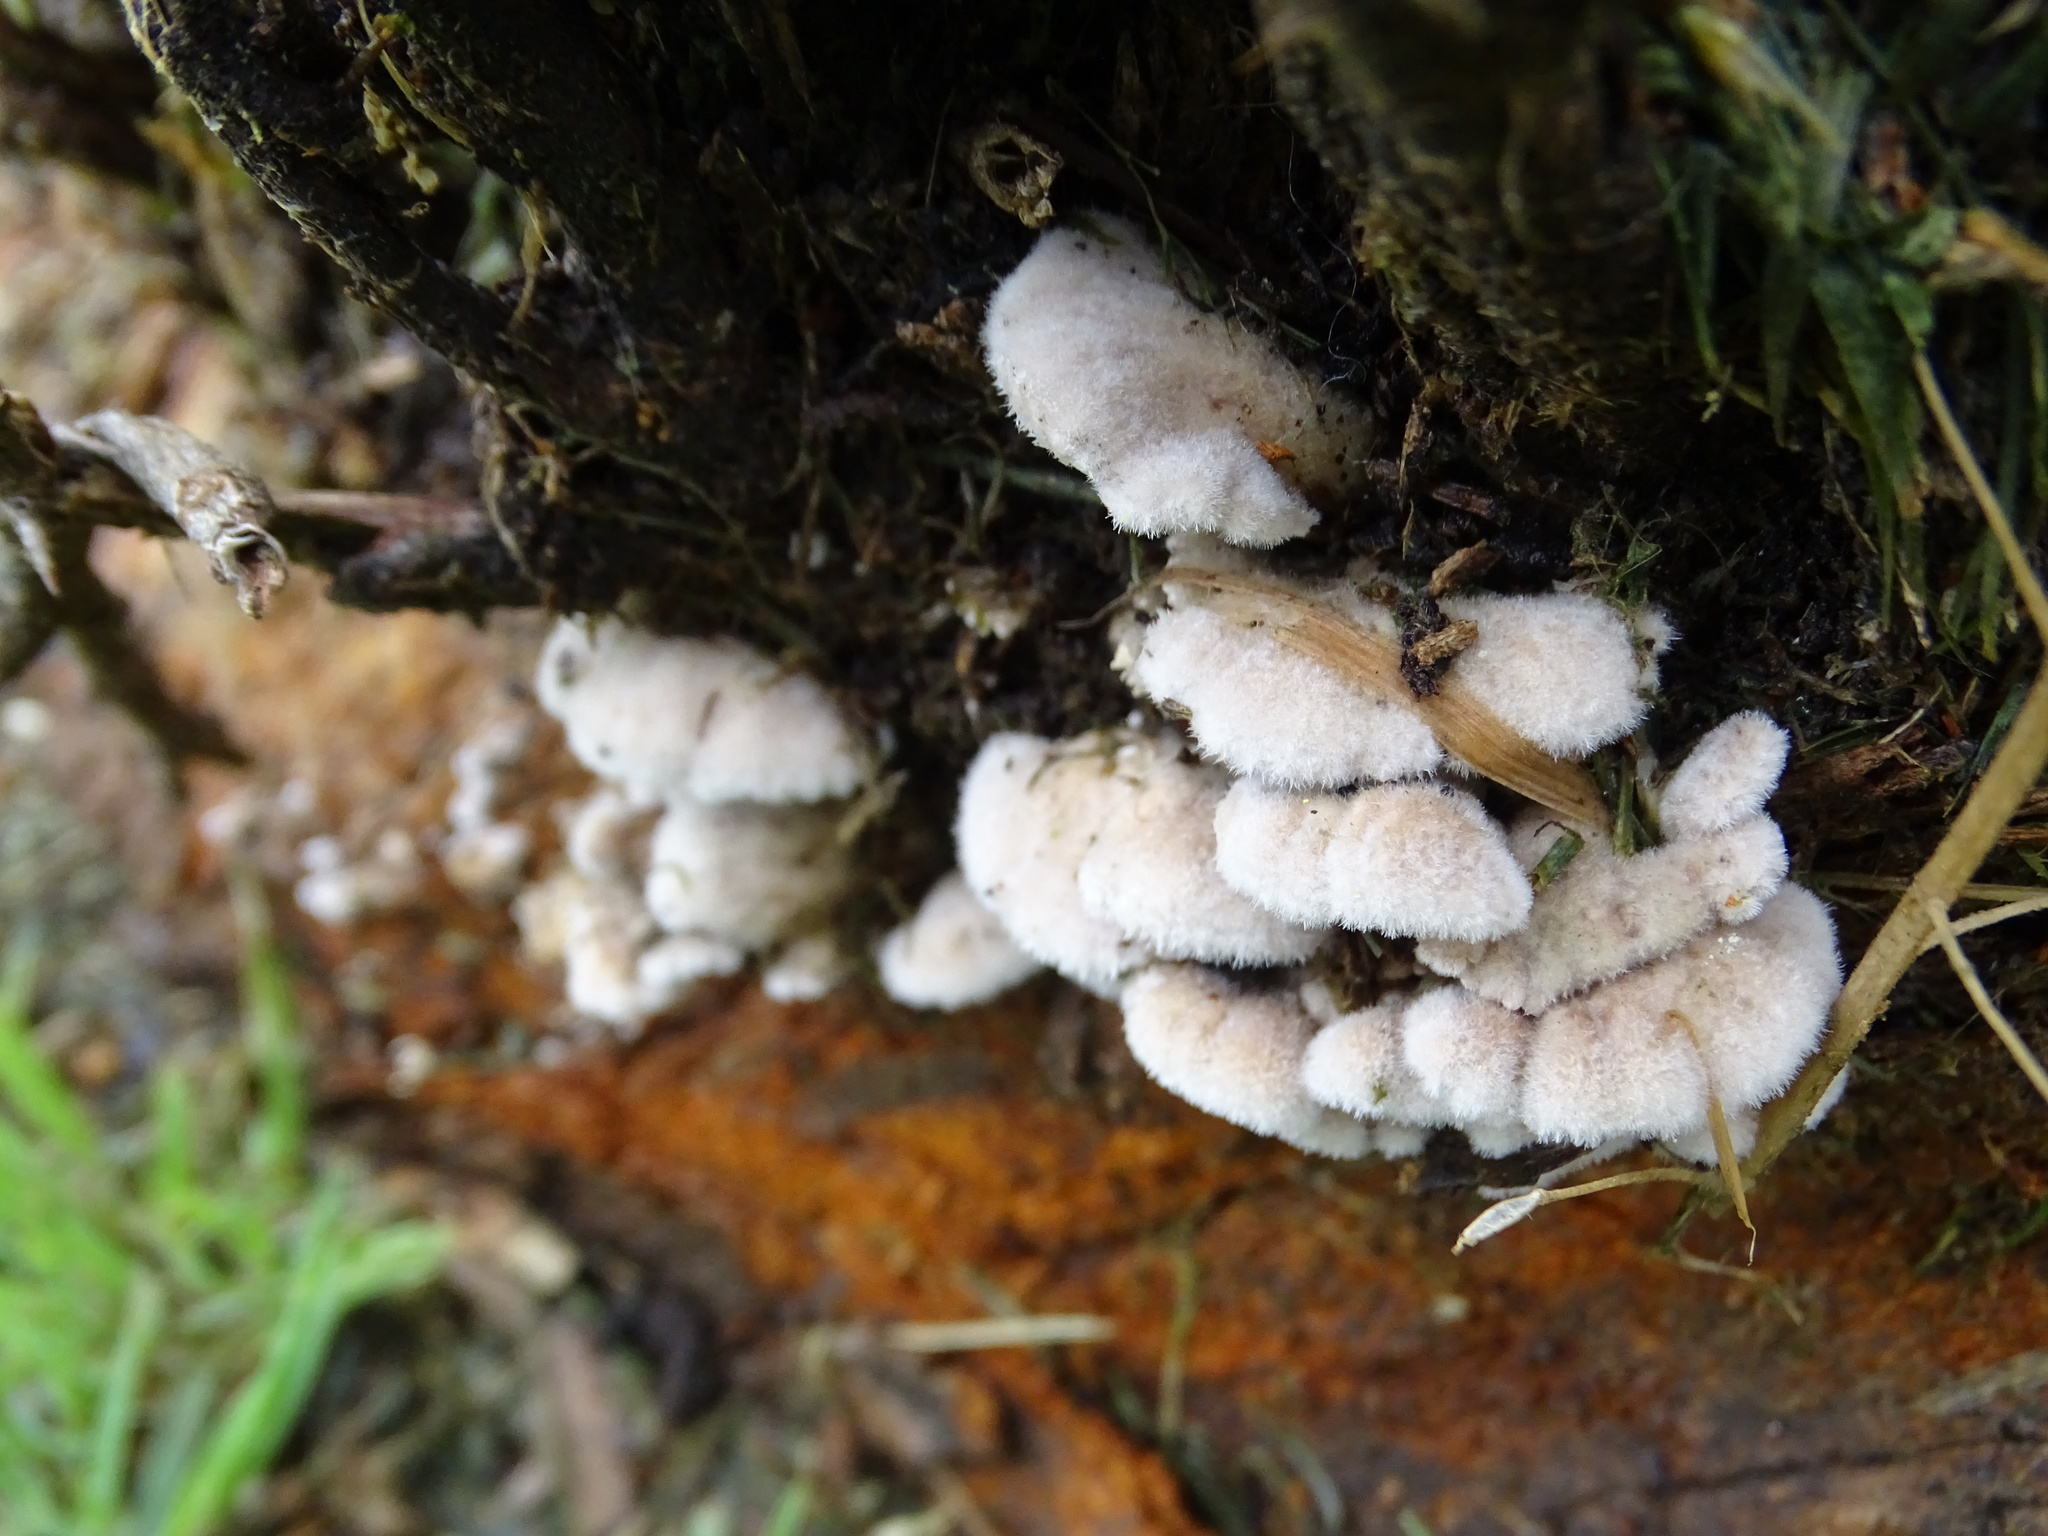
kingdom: Fungi
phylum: Basidiomycota
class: Agaricomycetes
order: Agaricales
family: Schizophyllaceae
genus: Schizophyllum
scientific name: Schizophyllum commune
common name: Common porecrust
